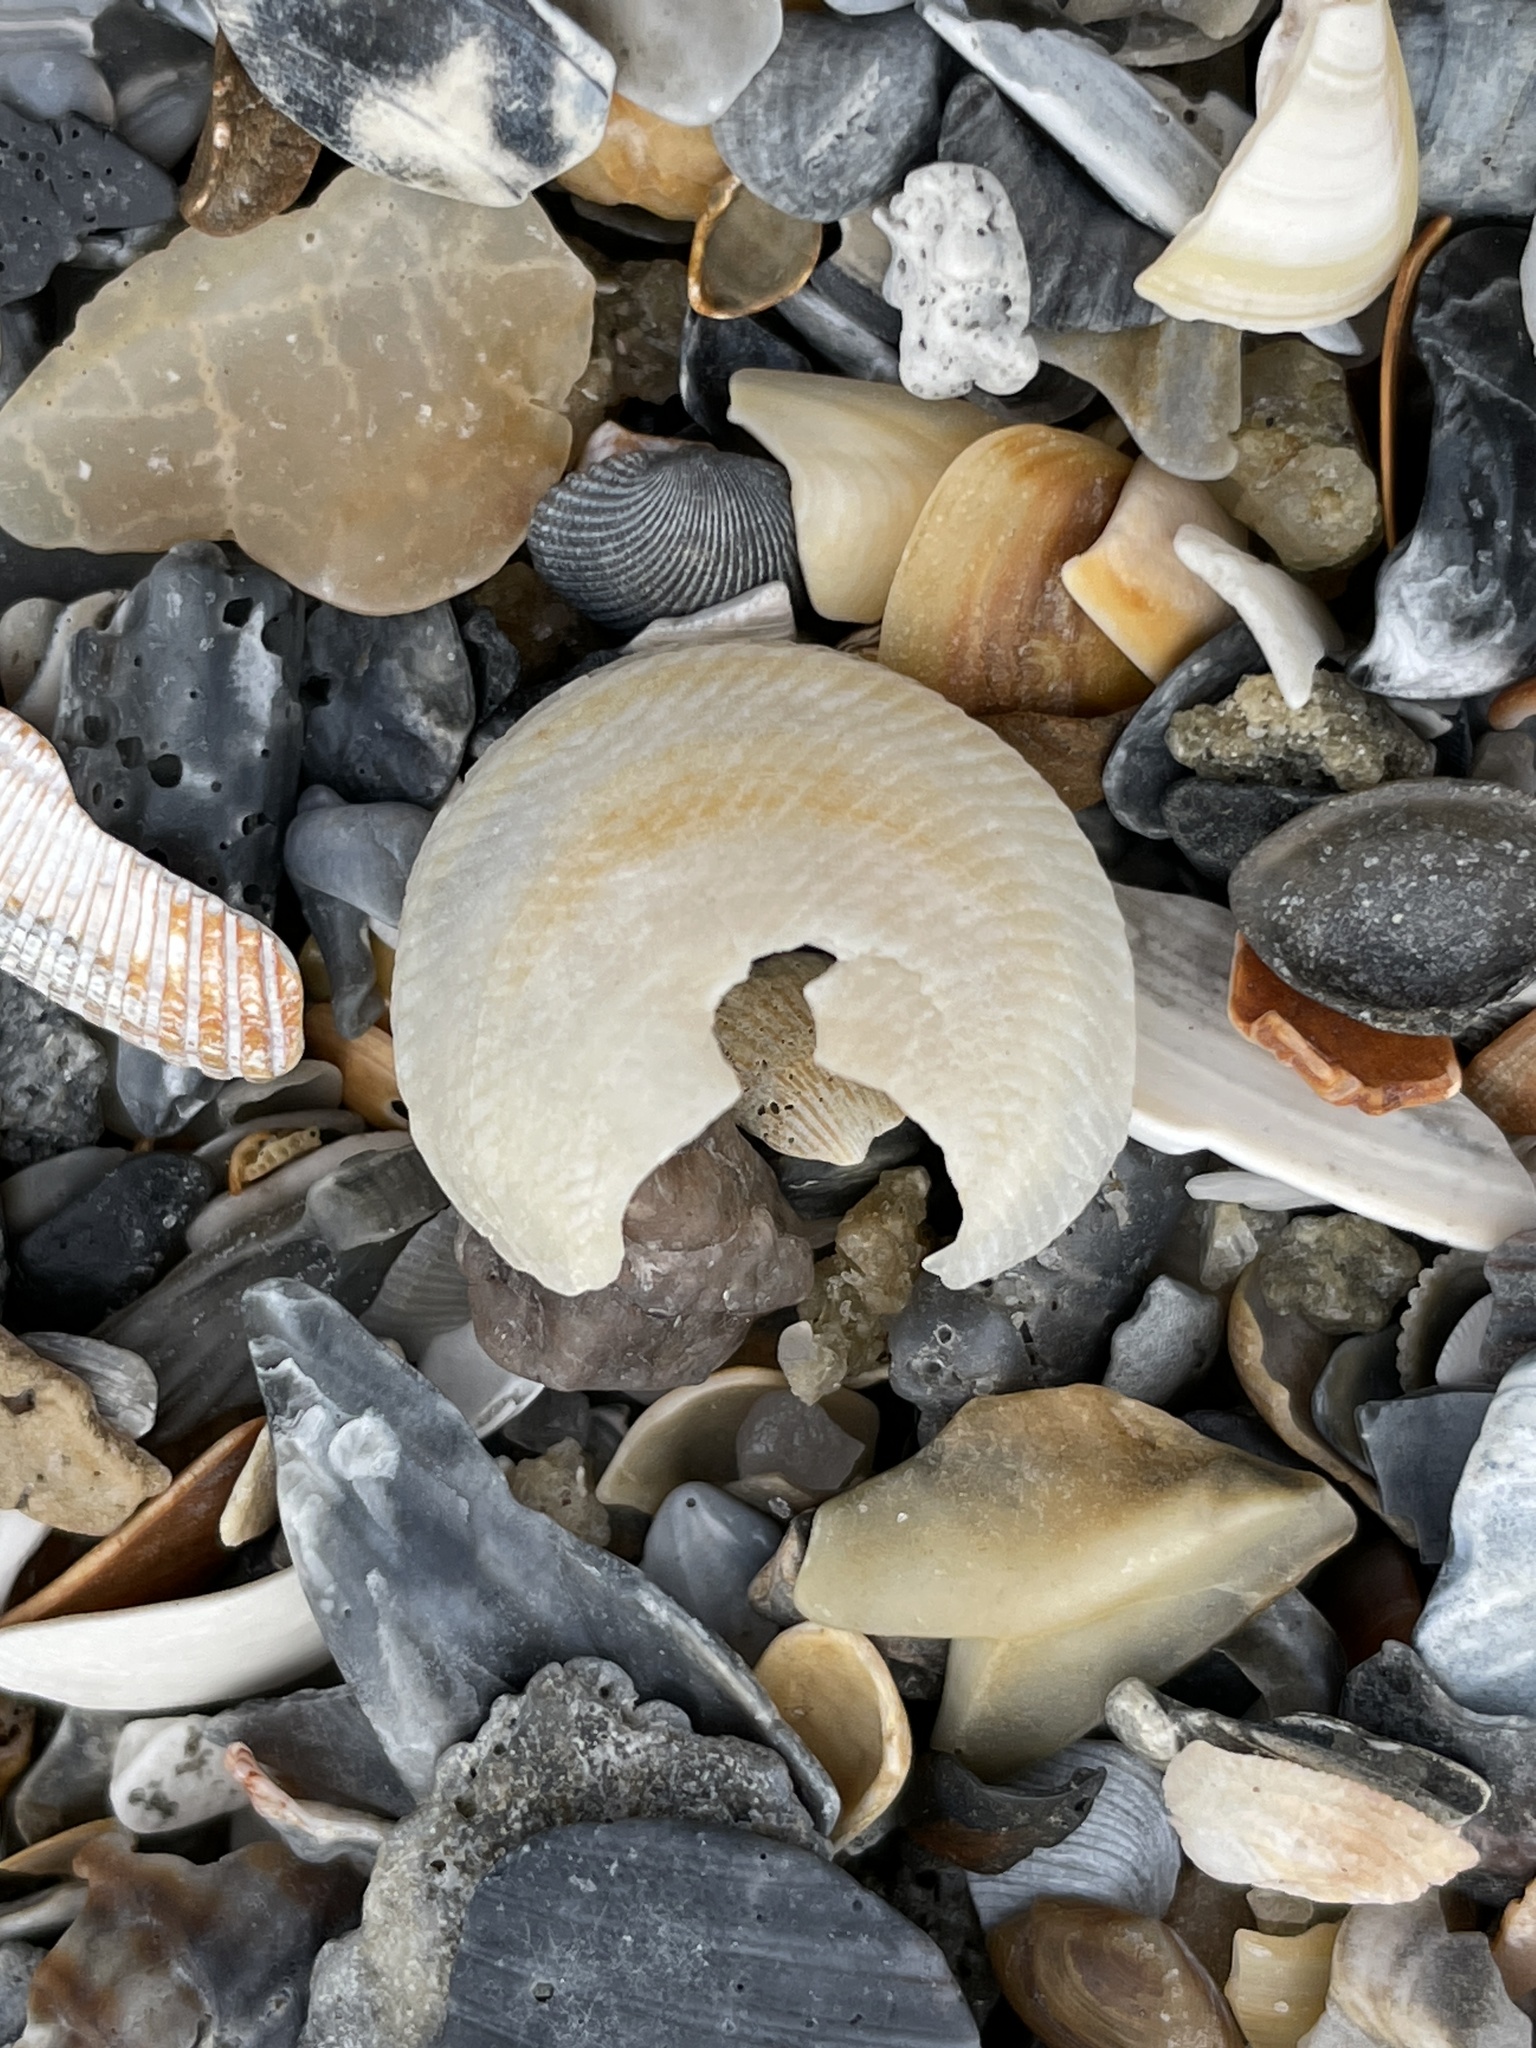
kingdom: Animalia
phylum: Mollusca
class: Bivalvia
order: Lucinida
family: Lucinidae
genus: Divalinga
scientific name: Divalinga quadrisulcata
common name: Cross-hatched lucine
